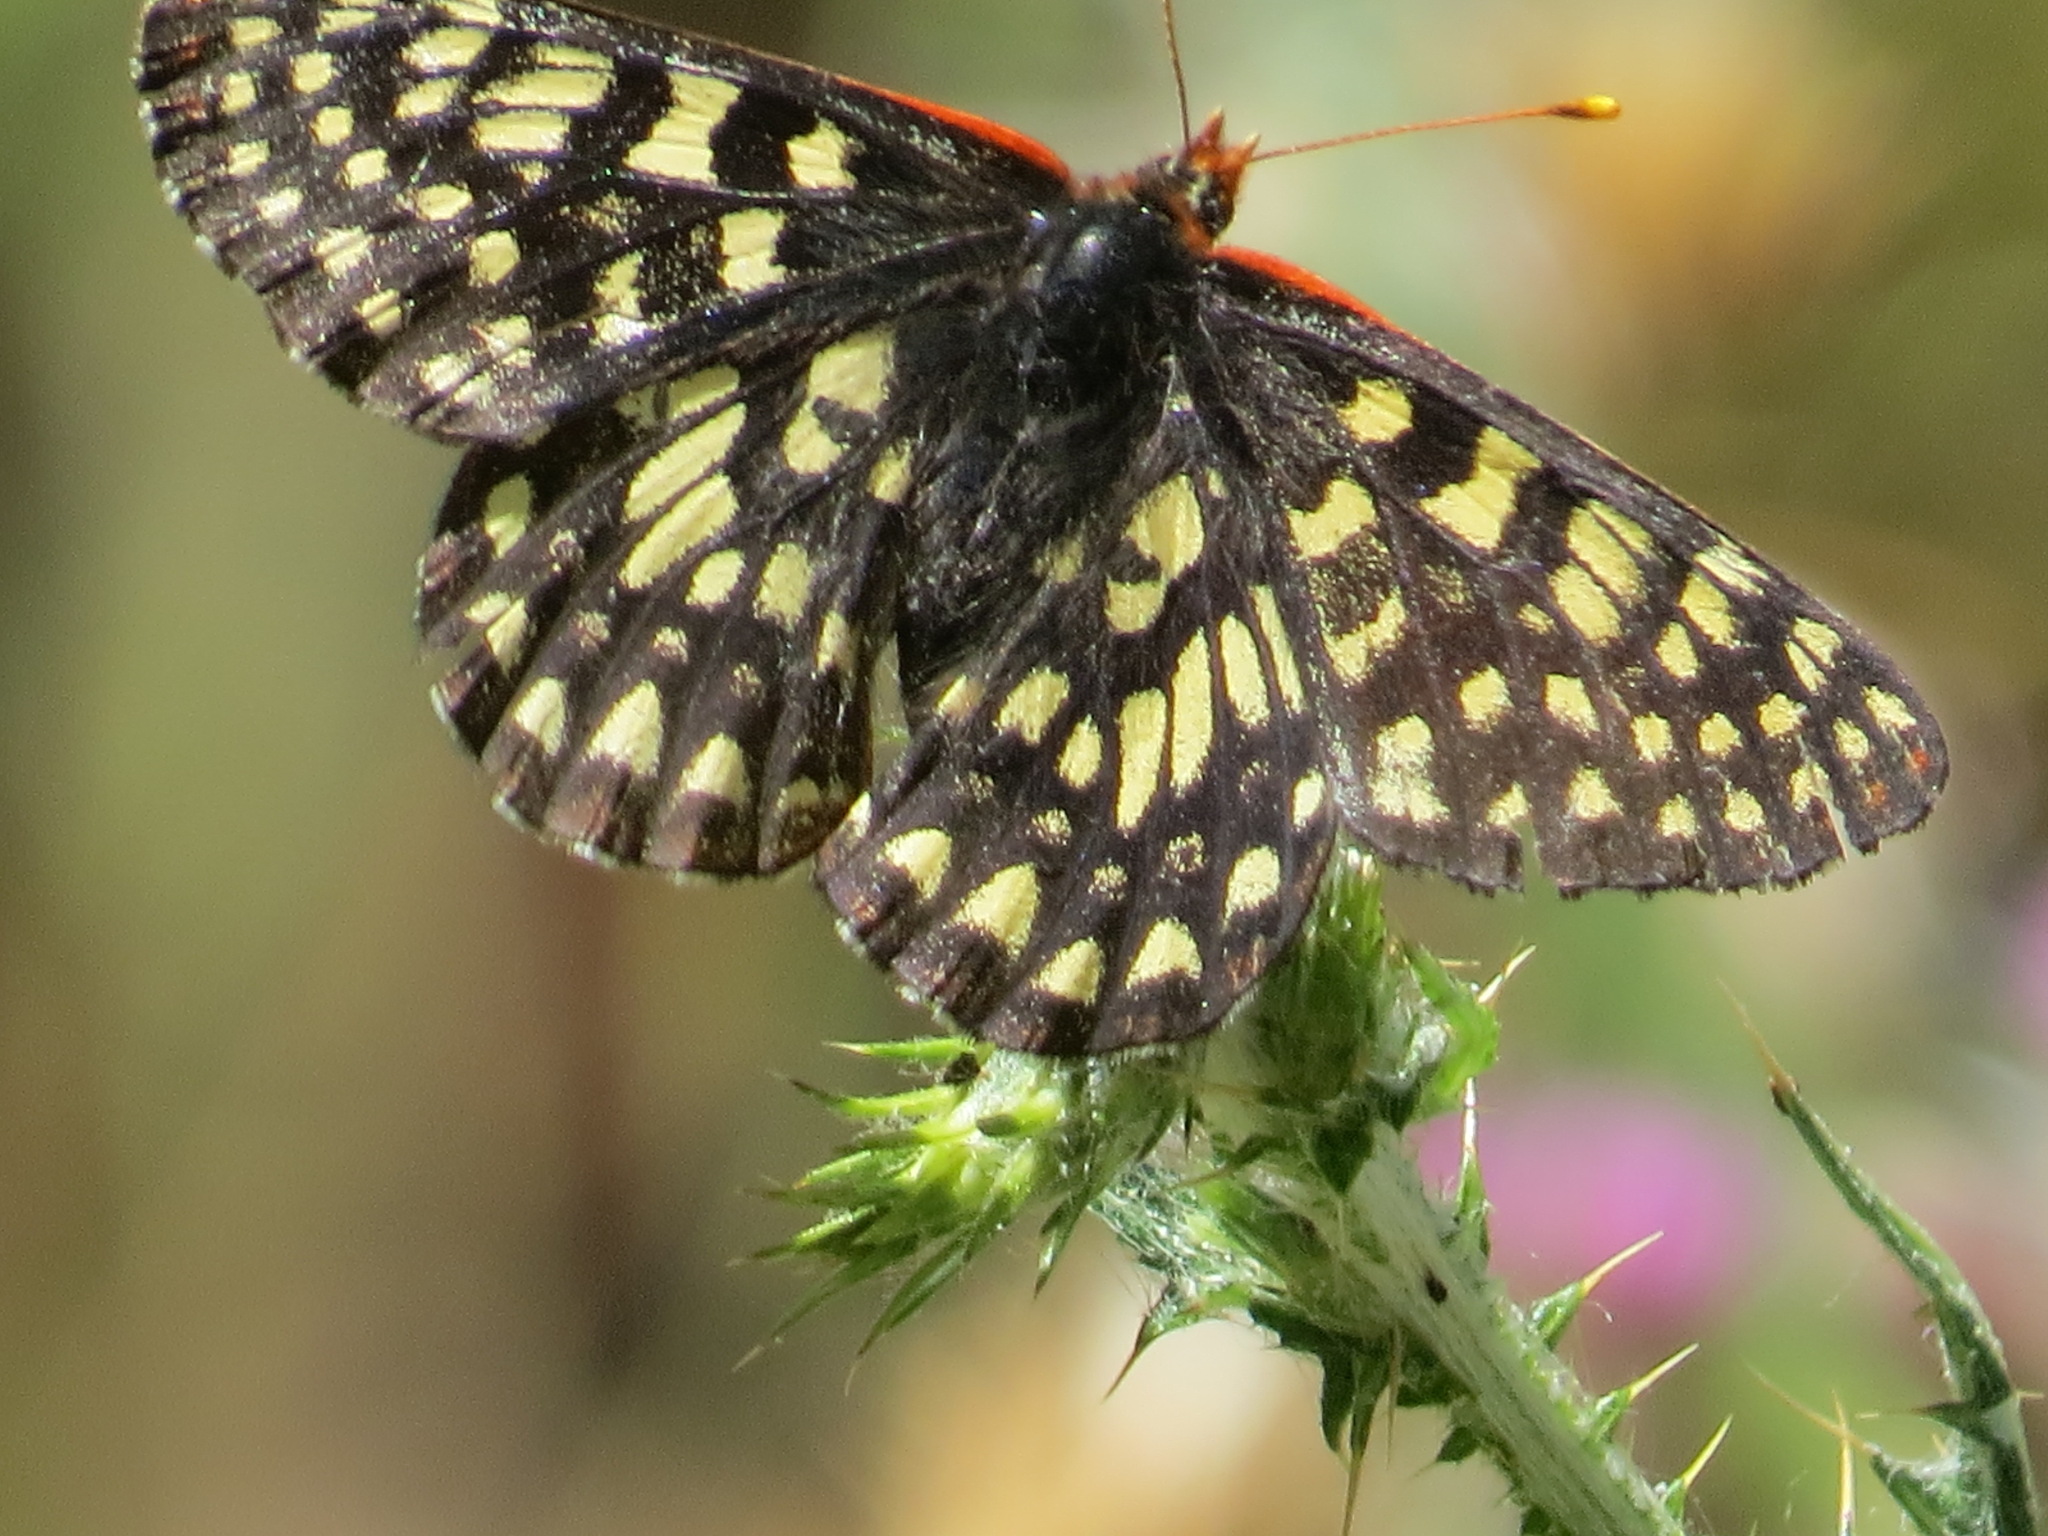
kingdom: Animalia
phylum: Arthropoda
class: Insecta
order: Lepidoptera
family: Nymphalidae
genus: Occidryas
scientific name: Occidryas chalcedona
